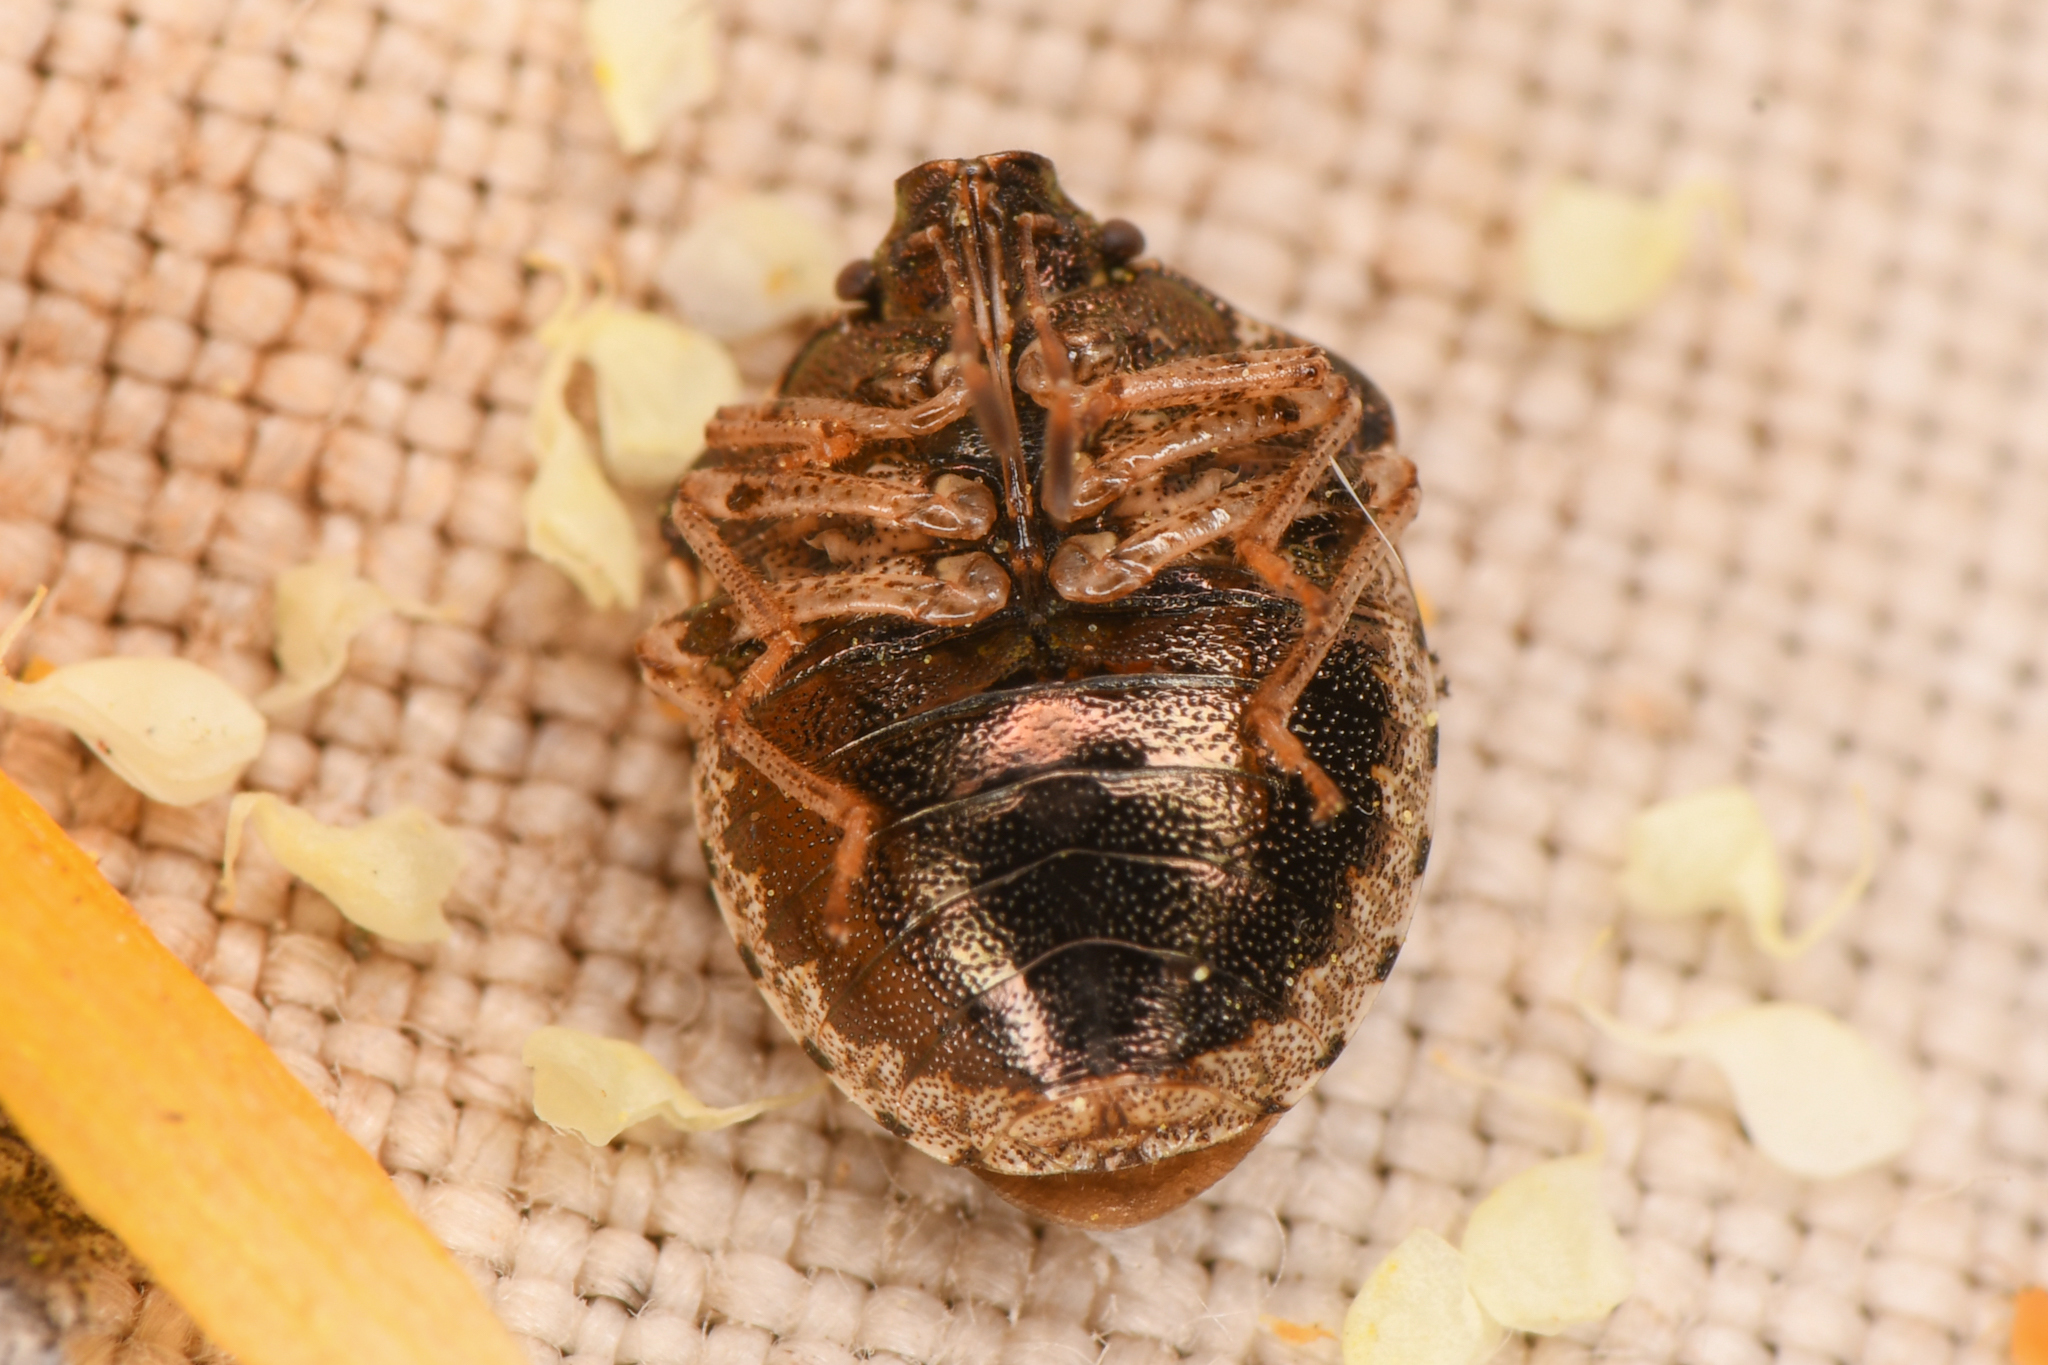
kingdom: Animalia
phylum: Arthropoda
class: Insecta
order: Hemiptera
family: Pentatomidae
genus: Cosmopepla
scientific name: Cosmopepla intergressus
